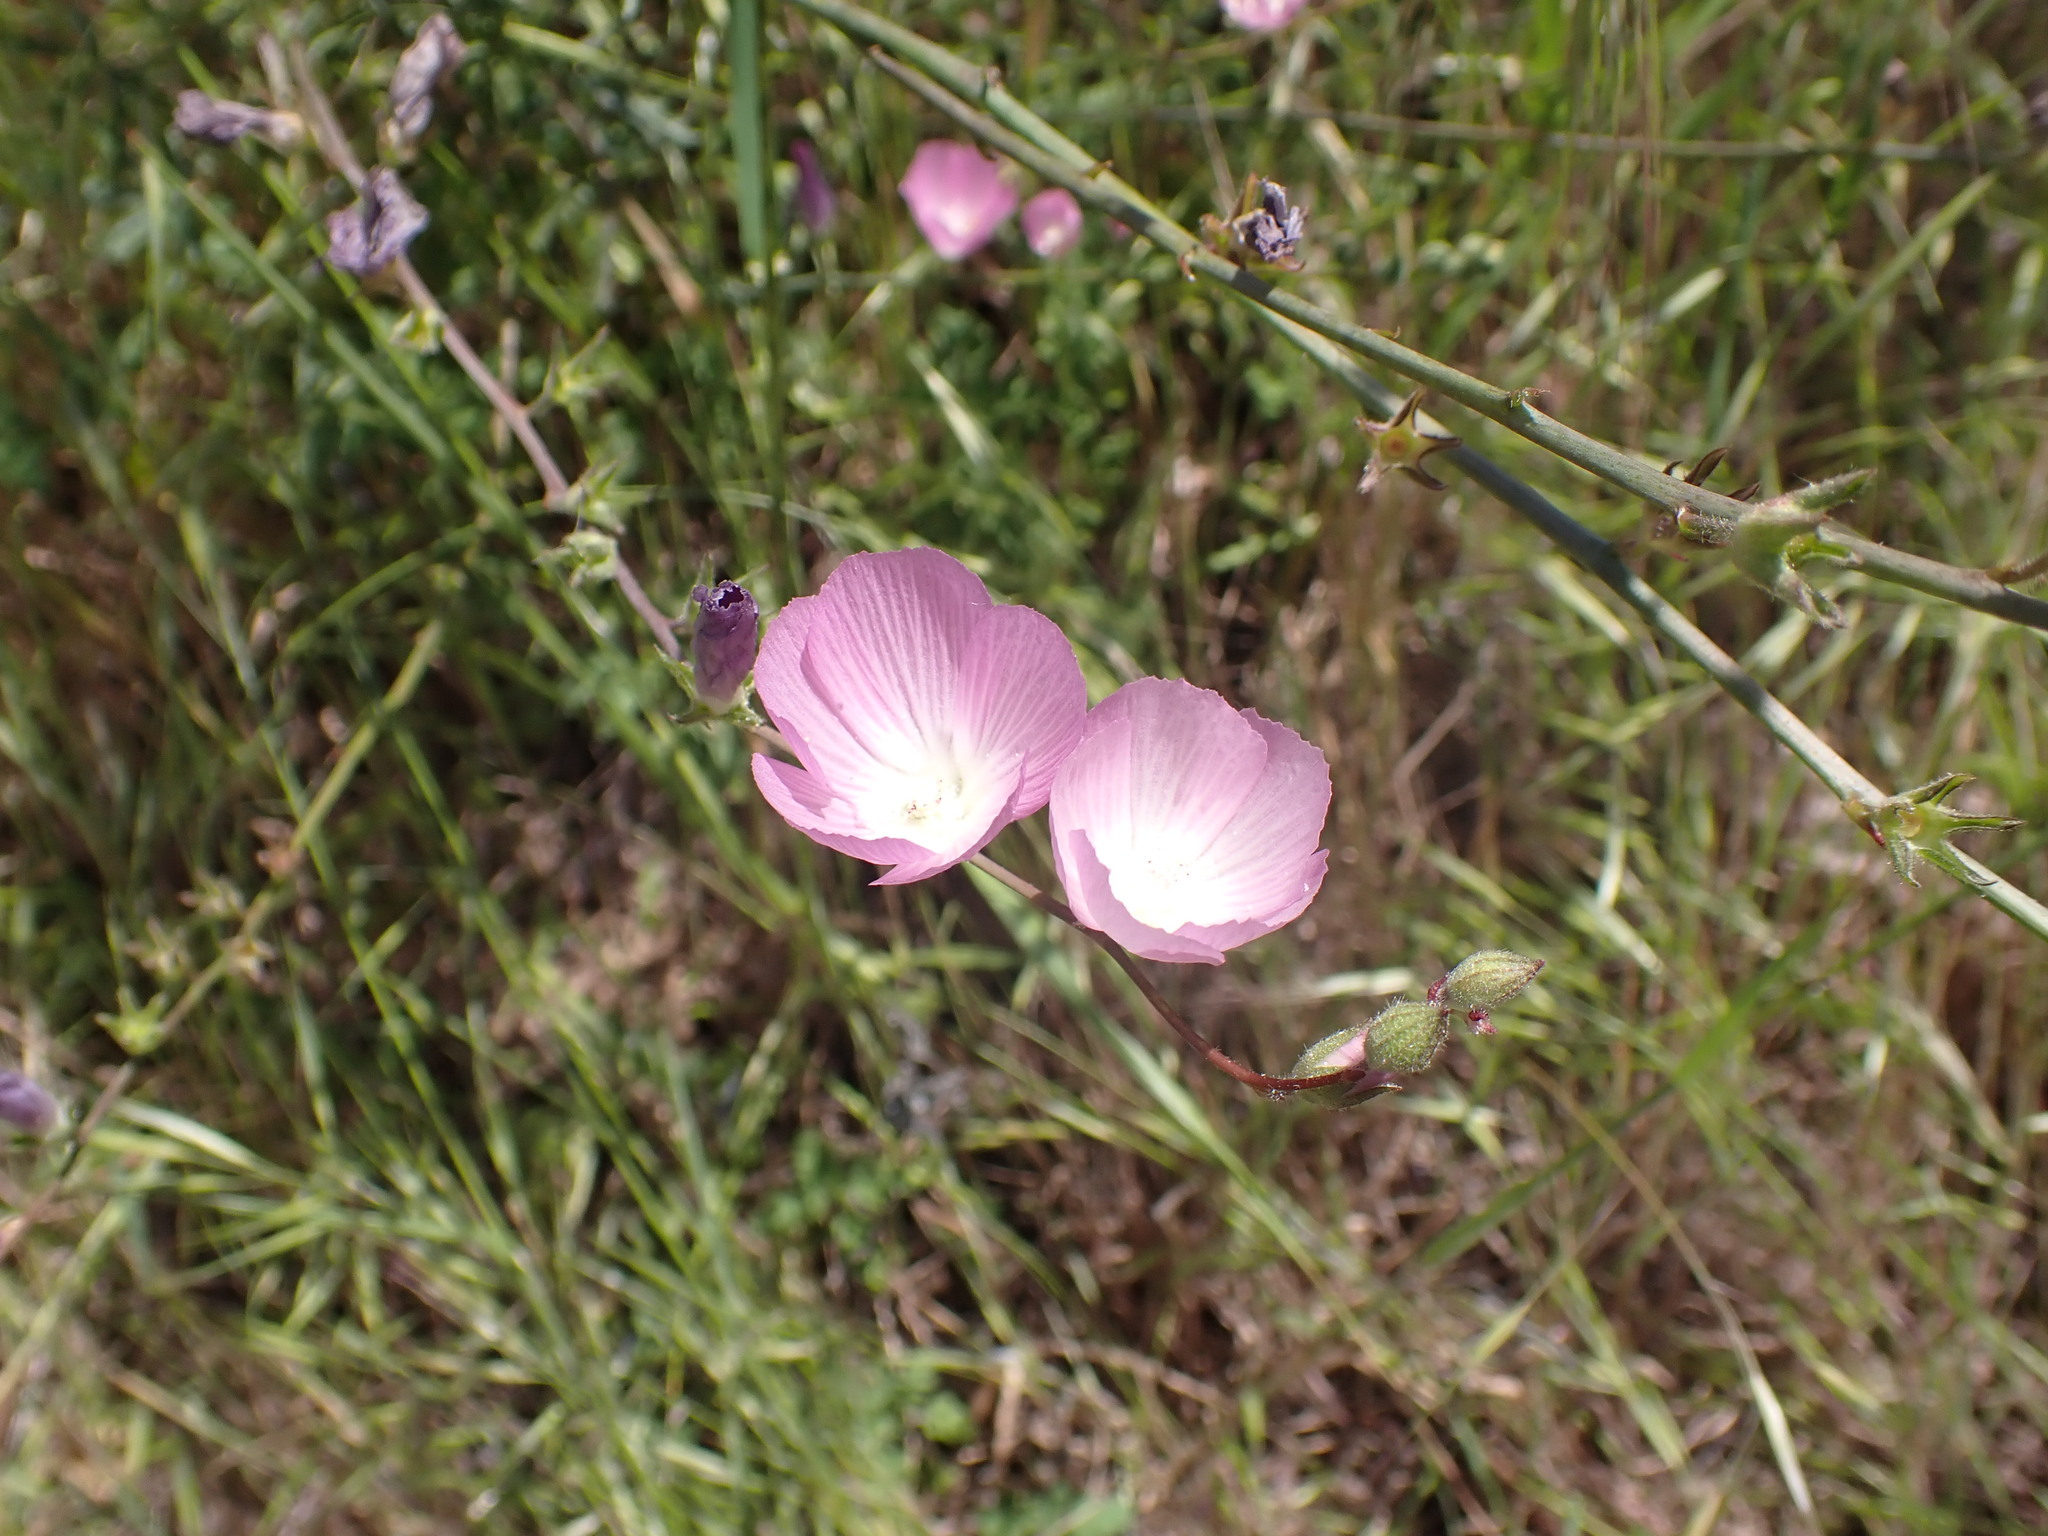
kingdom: Plantae
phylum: Tracheophyta
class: Magnoliopsida
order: Malvales
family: Malvaceae
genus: Sidalcea
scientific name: Sidalcea sparsifolia
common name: Southern checkerbloom
